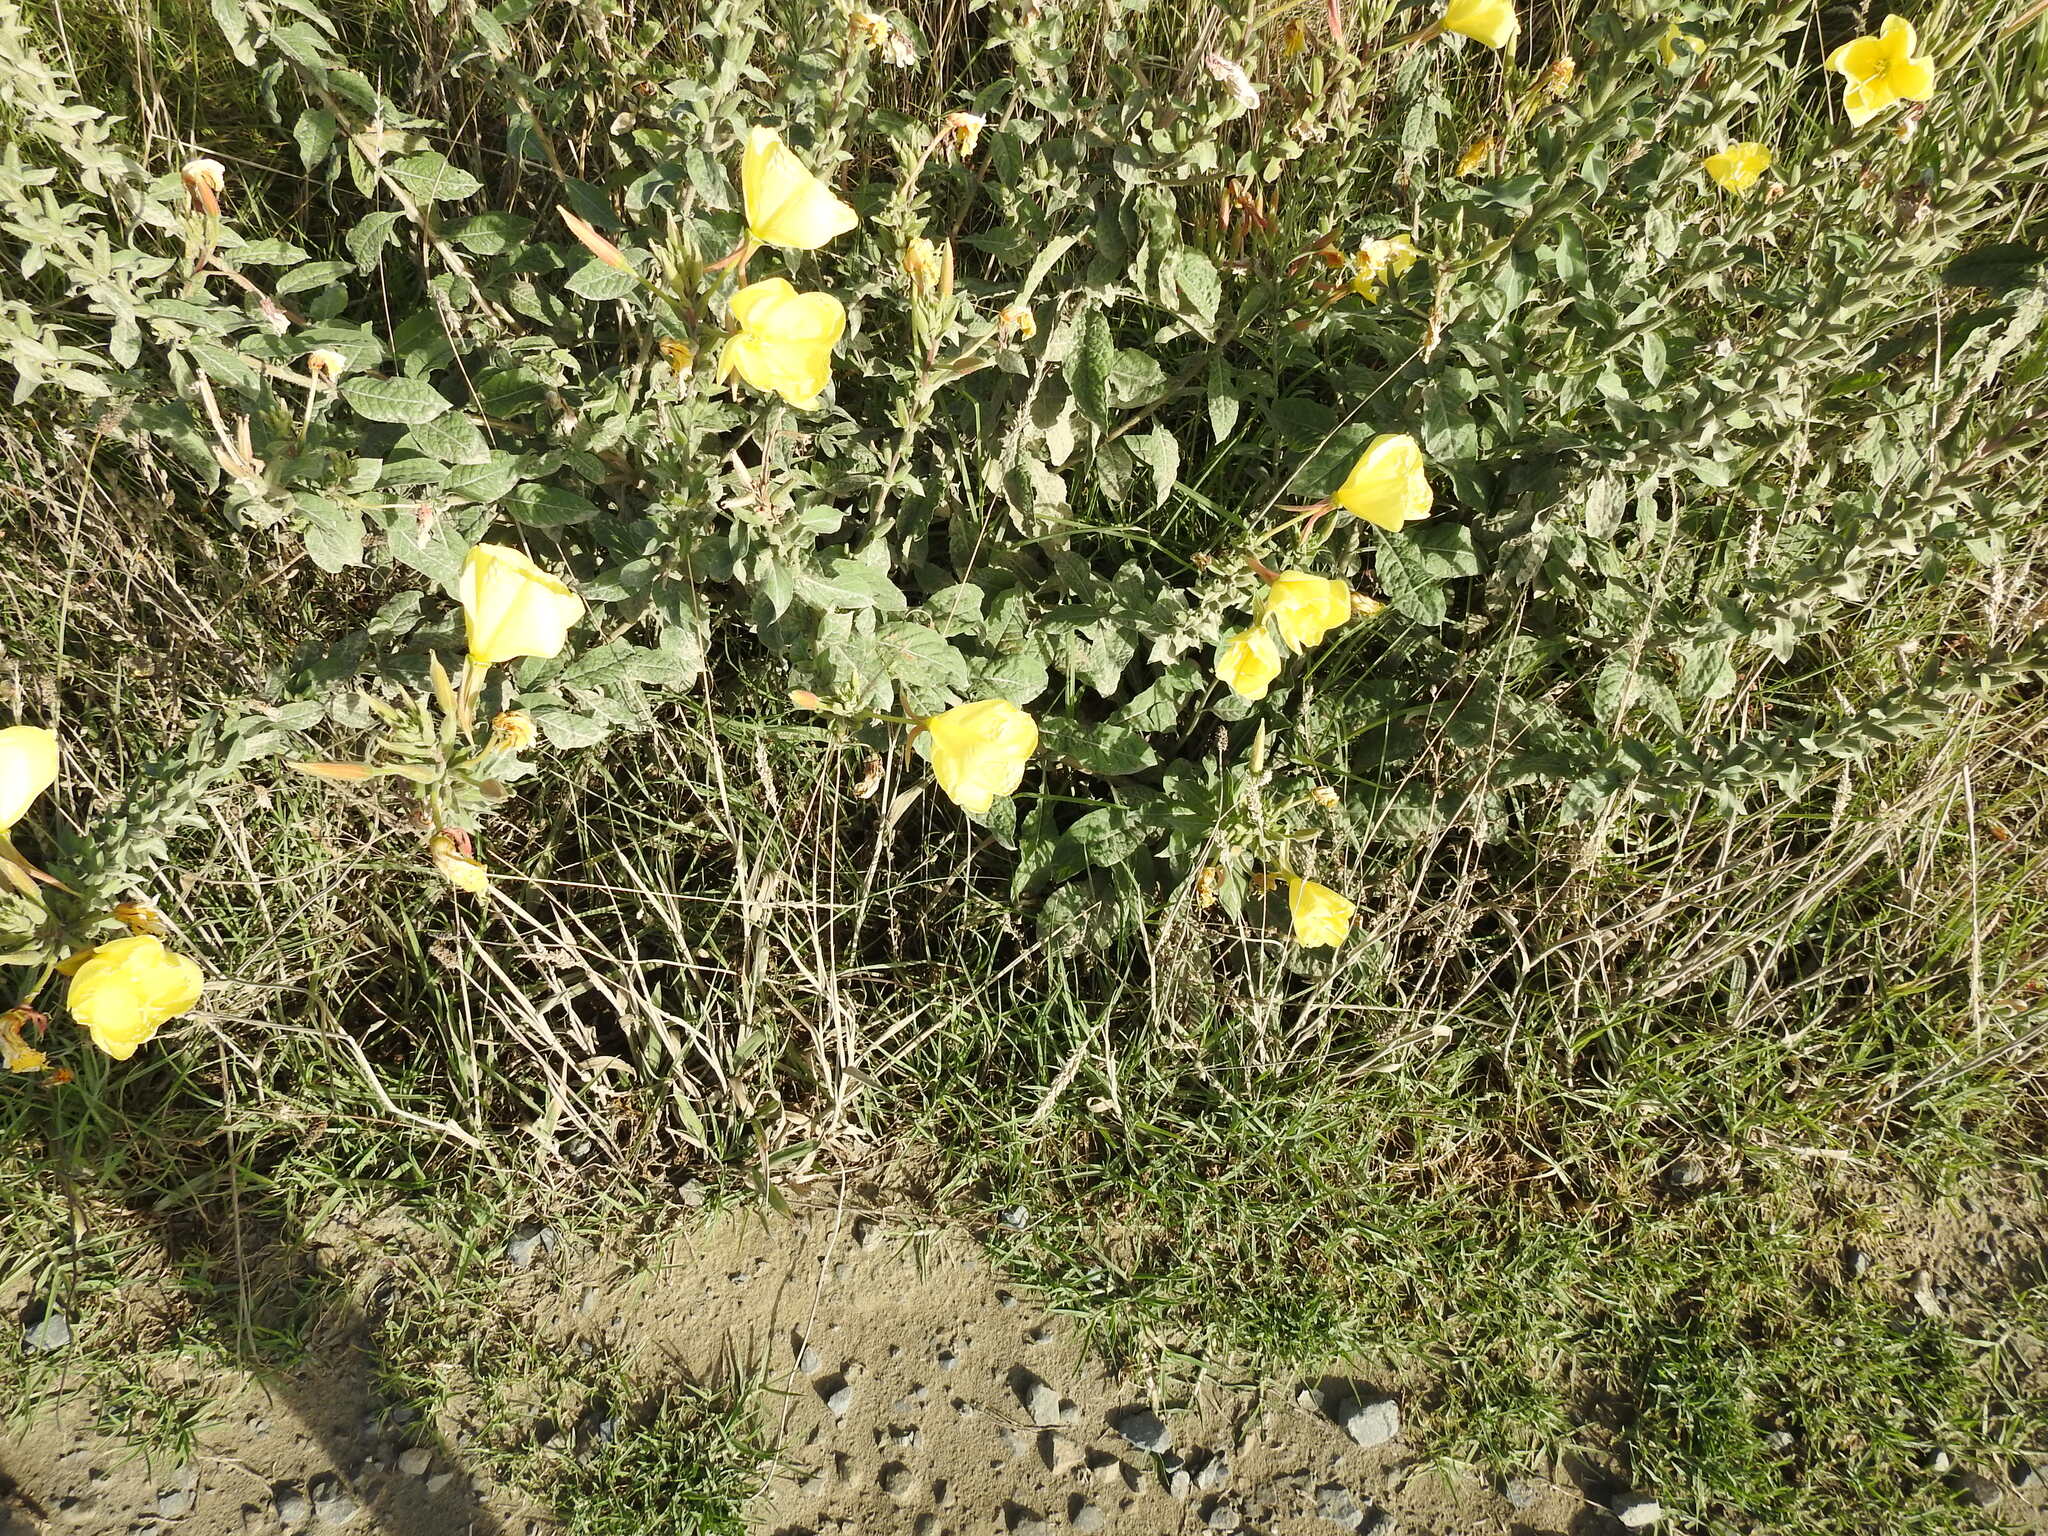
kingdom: Plantae
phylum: Tracheophyta
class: Magnoliopsida
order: Myrtales
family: Onagraceae
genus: Oenothera
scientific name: Oenothera glazioviana
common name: Large-flowered evening-primrose
